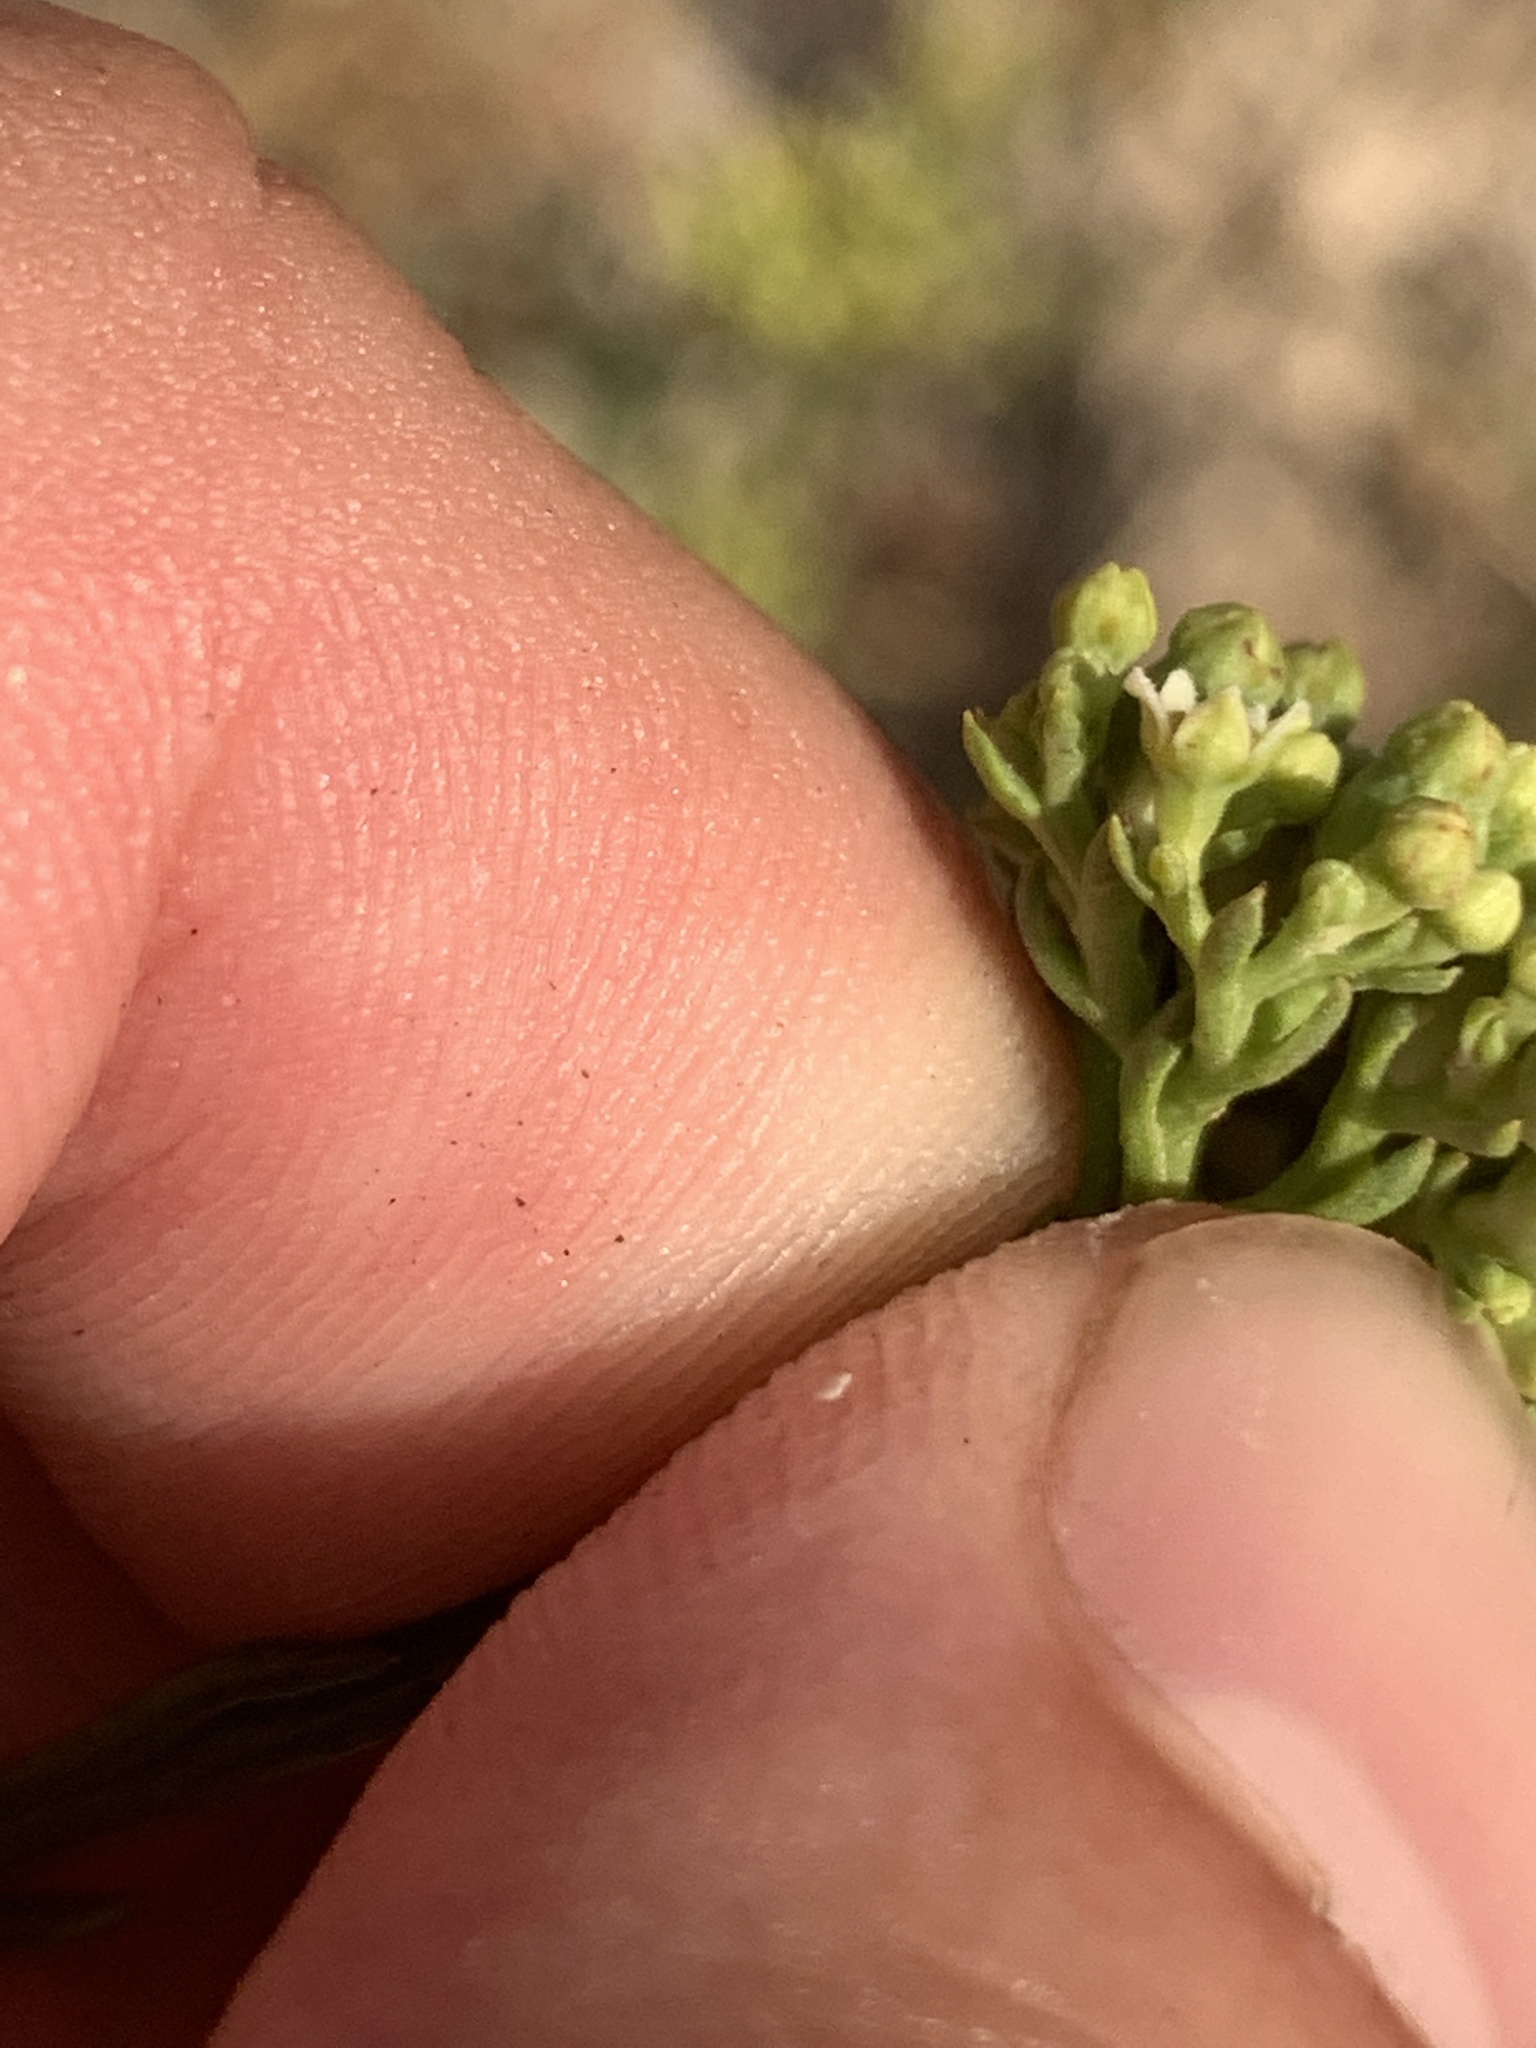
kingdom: Plantae
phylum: Tracheophyta
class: Magnoliopsida
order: Santalales
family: Thesiaceae
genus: Thesium
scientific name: Thesium strictum
